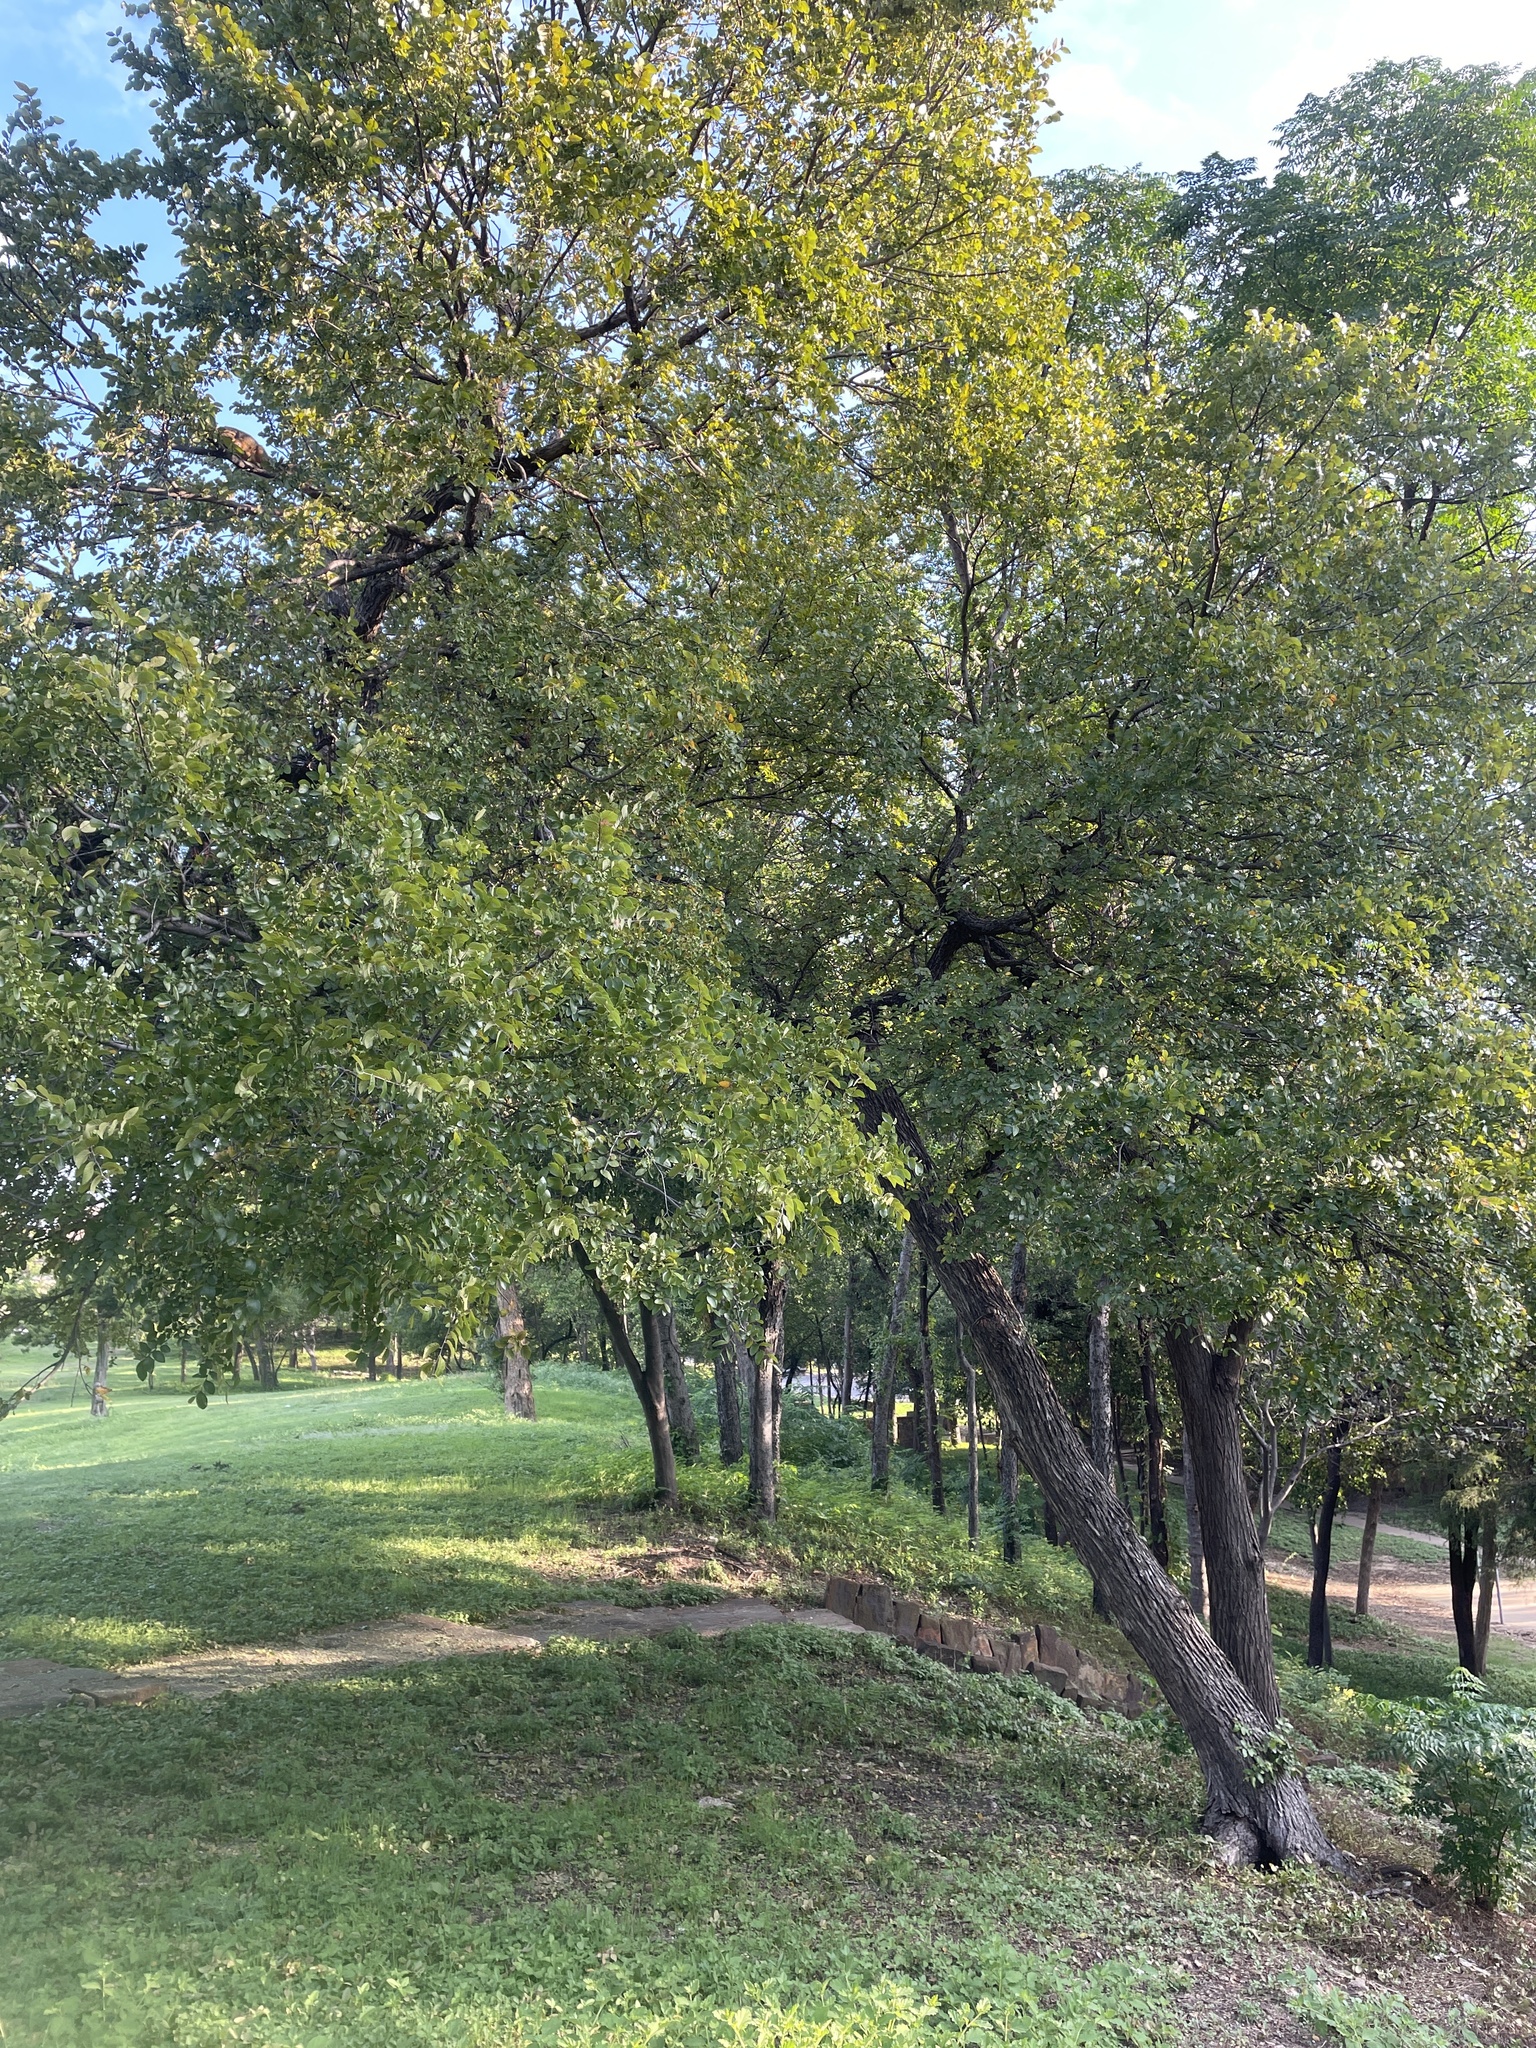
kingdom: Plantae
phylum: Tracheophyta
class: Magnoliopsida
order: Rosales
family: Ulmaceae
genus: Ulmus
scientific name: Ulmus crassifolia
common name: Basket elm
